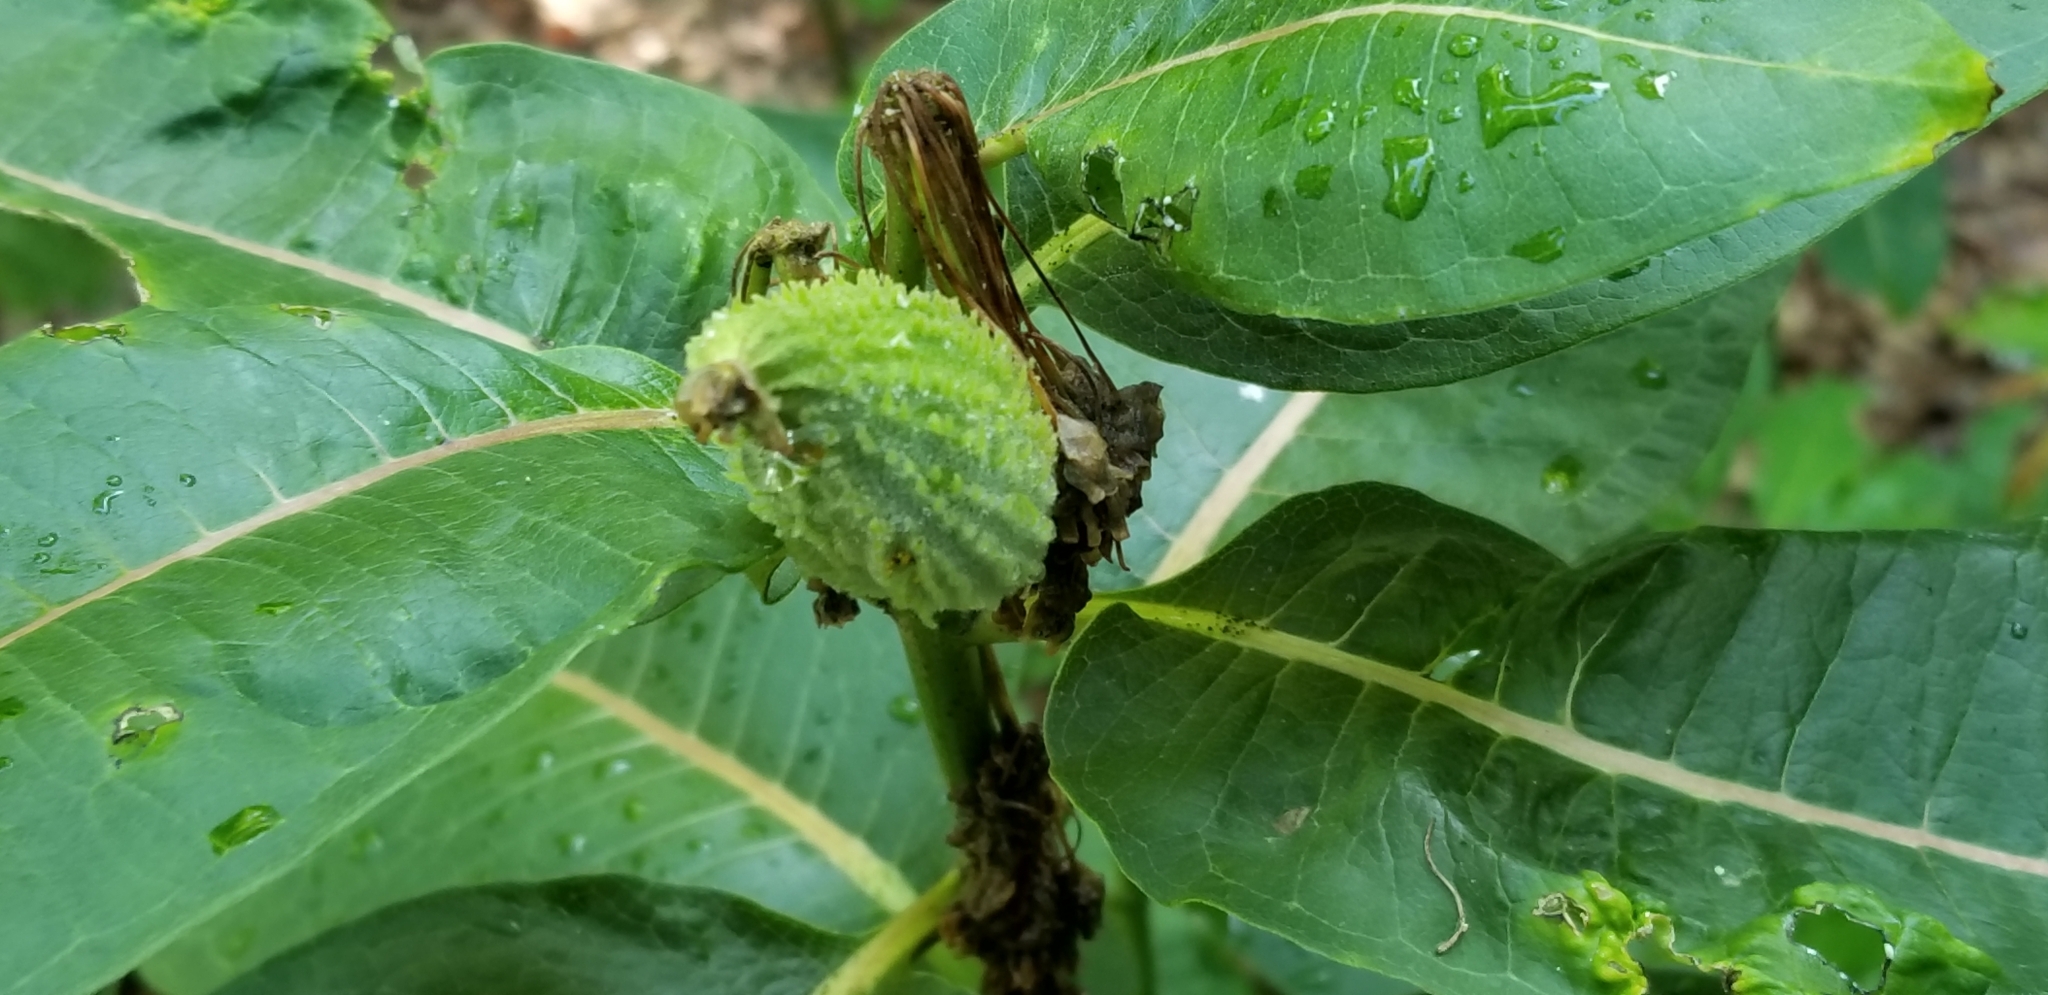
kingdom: Plantae
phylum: Tracheophyta
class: Magnoliopsida
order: Gentianales
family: Apocynaceae
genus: Asclepias
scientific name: Asclepias syriaca
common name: Common milkweed
